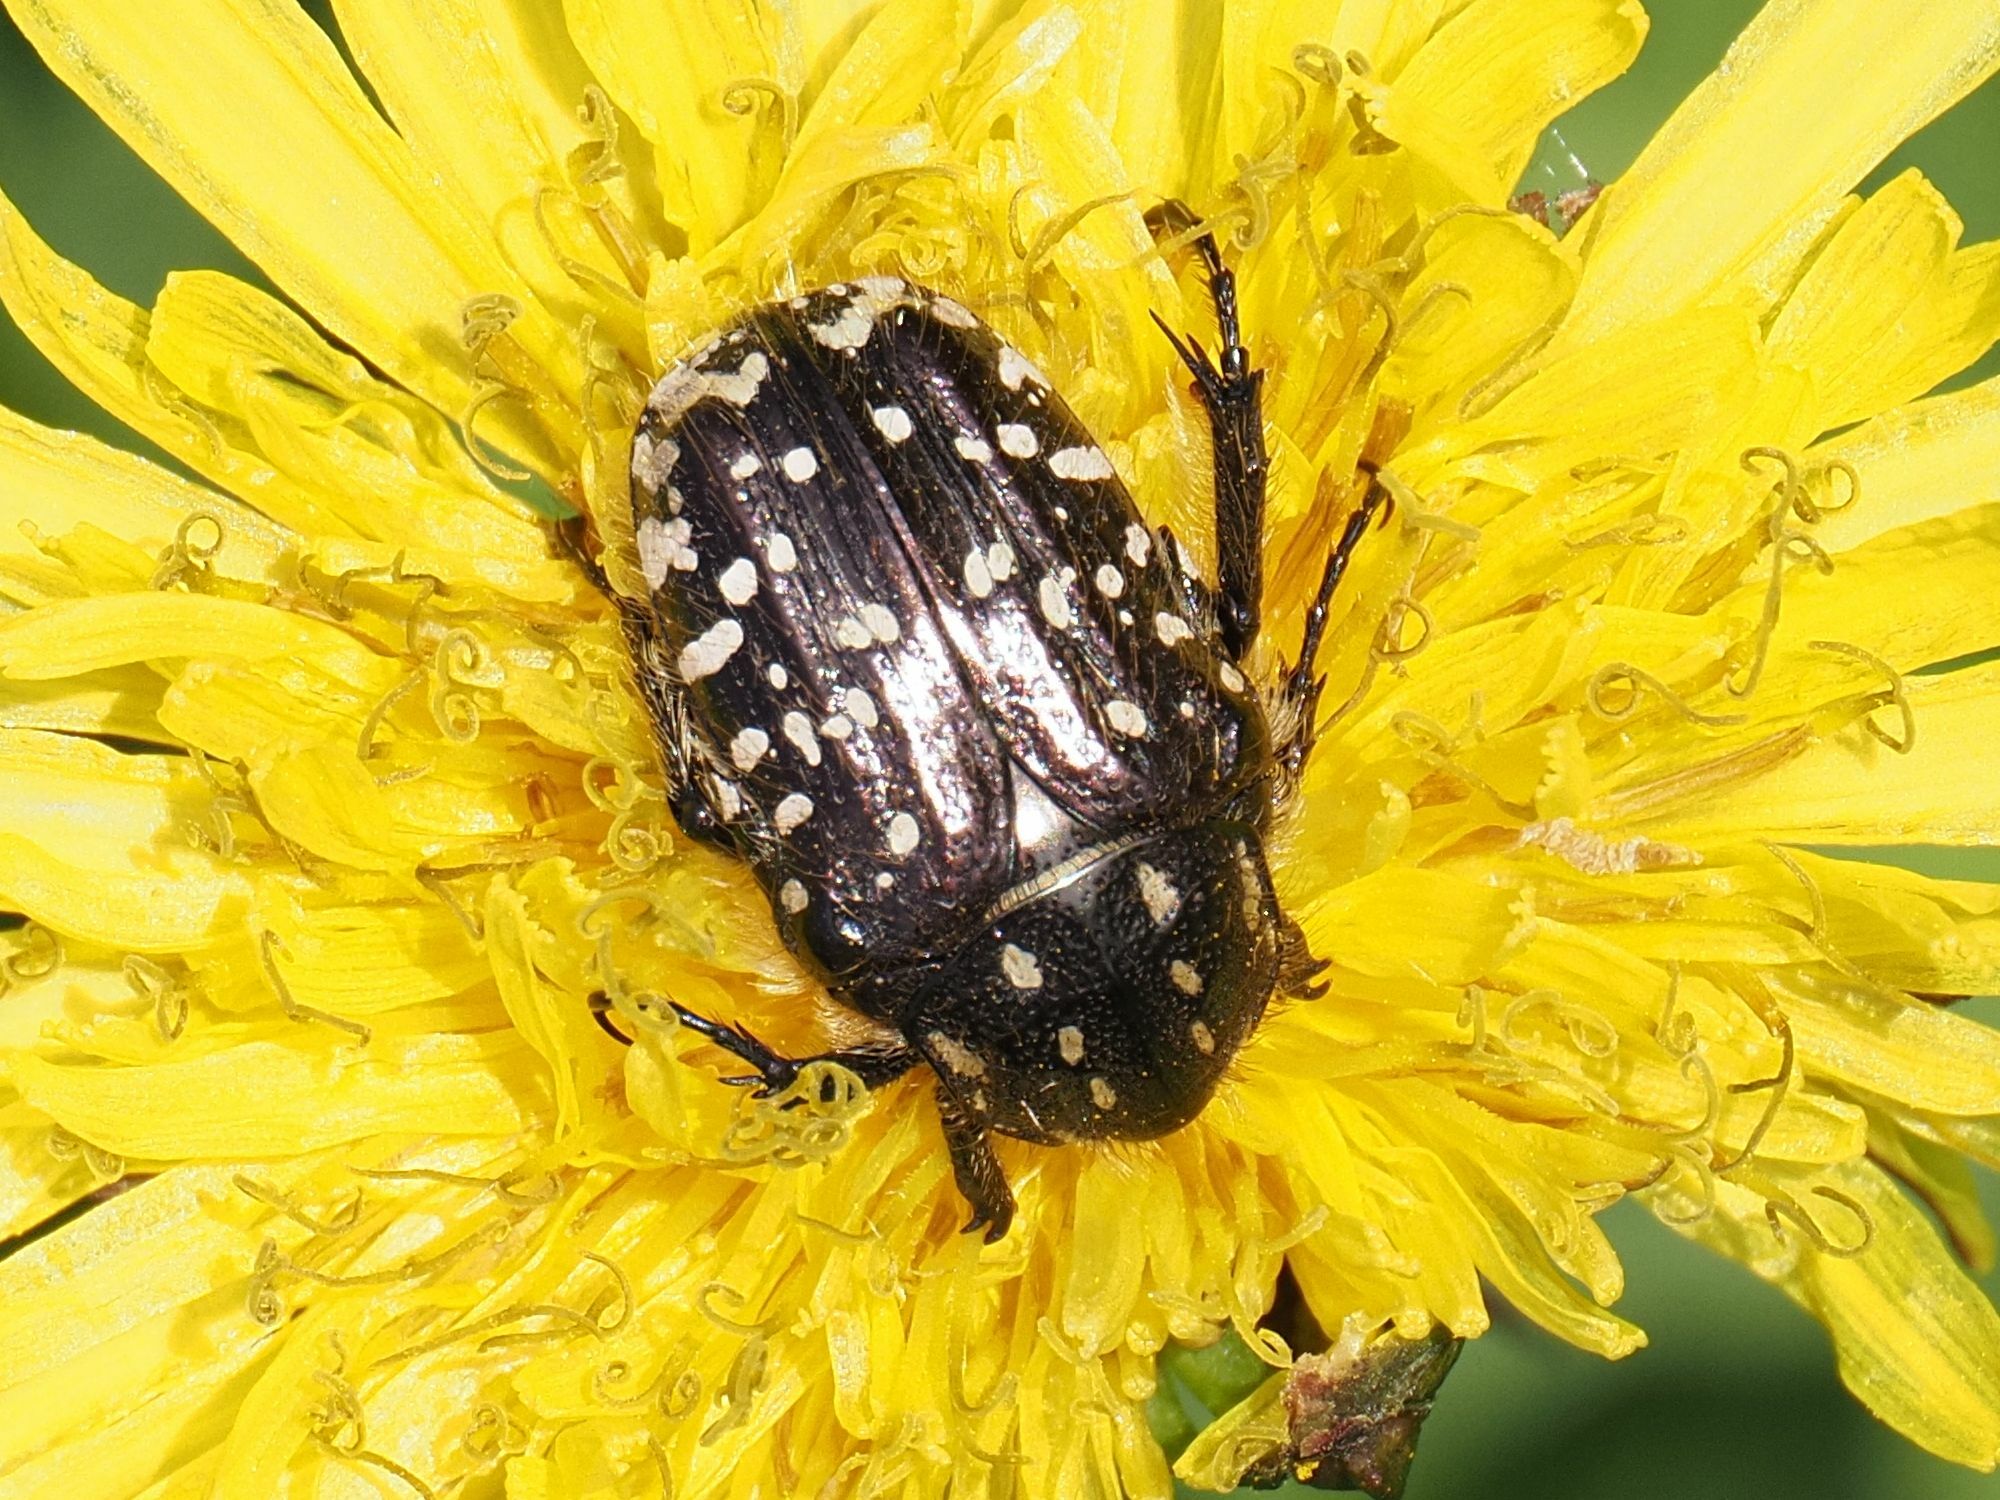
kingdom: Animalia
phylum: Arthropoda
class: Insecta
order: Coleoptera
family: Scarabaeidae
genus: Oxythyrea
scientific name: Oxythyrea funesta
